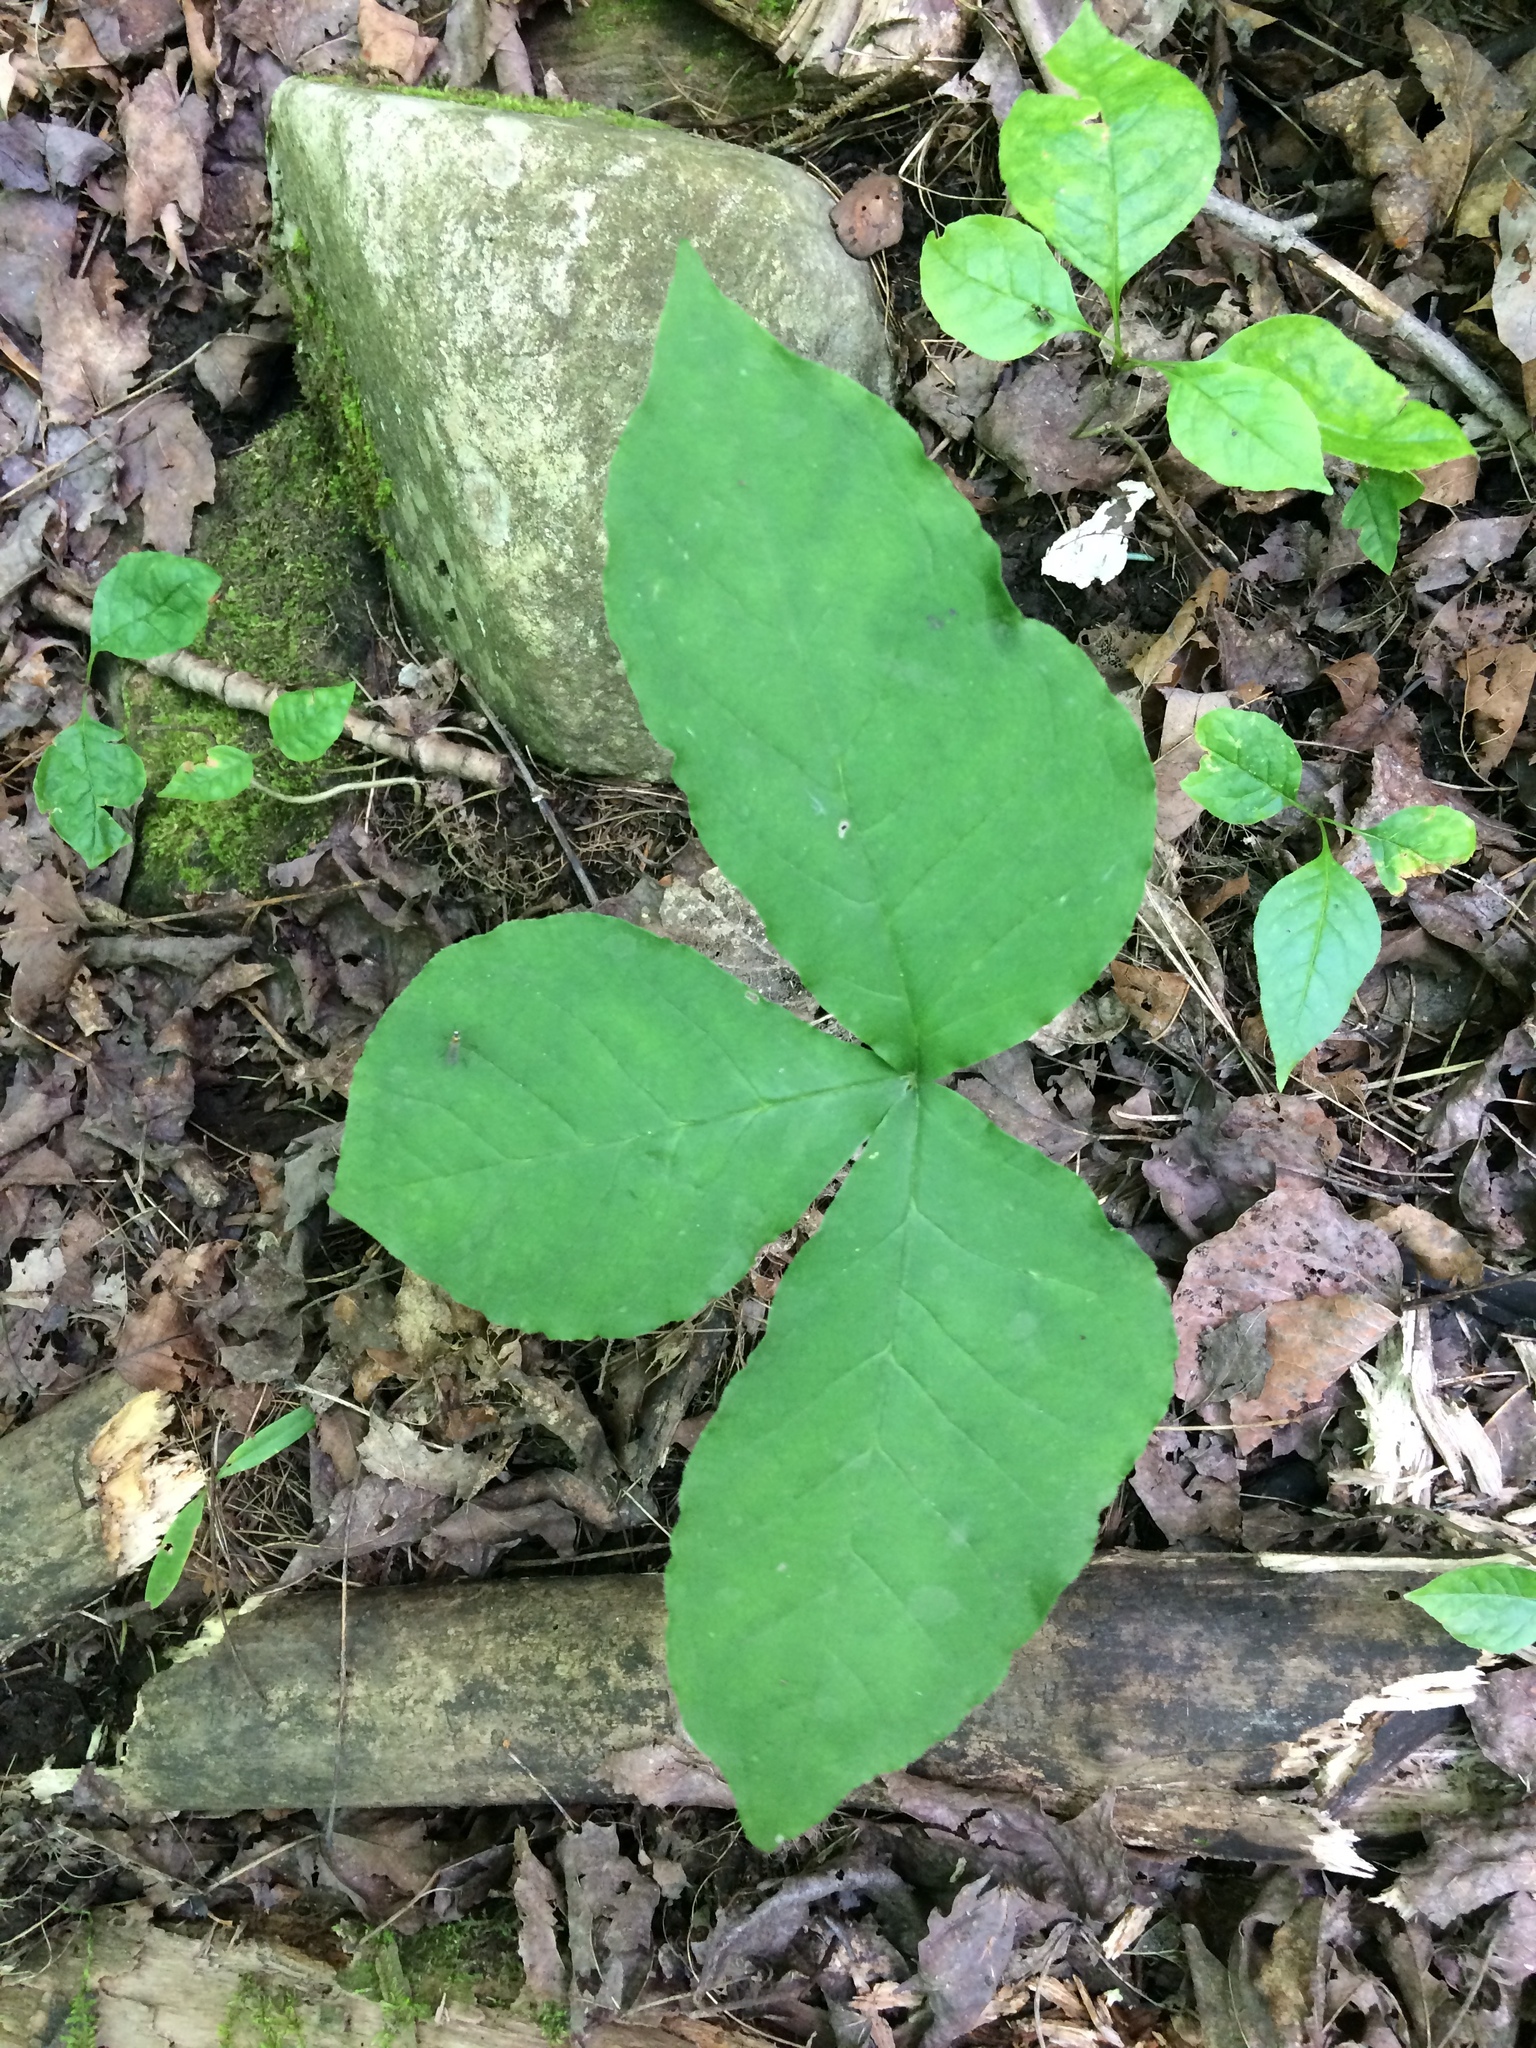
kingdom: Plantae
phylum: Tracheophyta
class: Liliopsida
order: Alismatales
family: Araceae
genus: Arisaema
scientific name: Arisaema triphyllum
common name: Jack-in-the-pulpit
